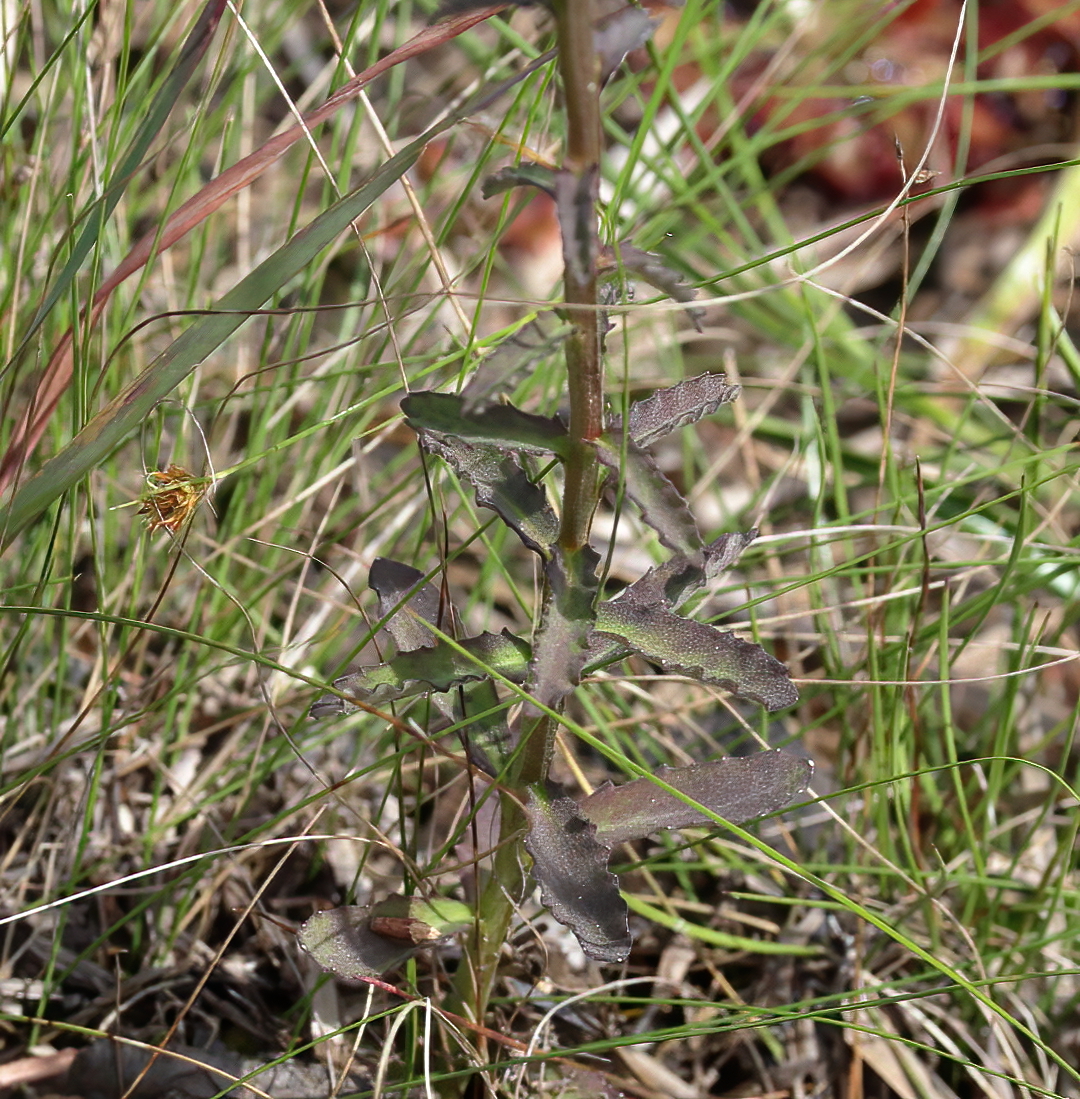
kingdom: Plantae
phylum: Tracheophyta
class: Magnoliopsida
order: Asterales
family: Campanulaceae
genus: Lobelia
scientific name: Lobelia brevifolia
